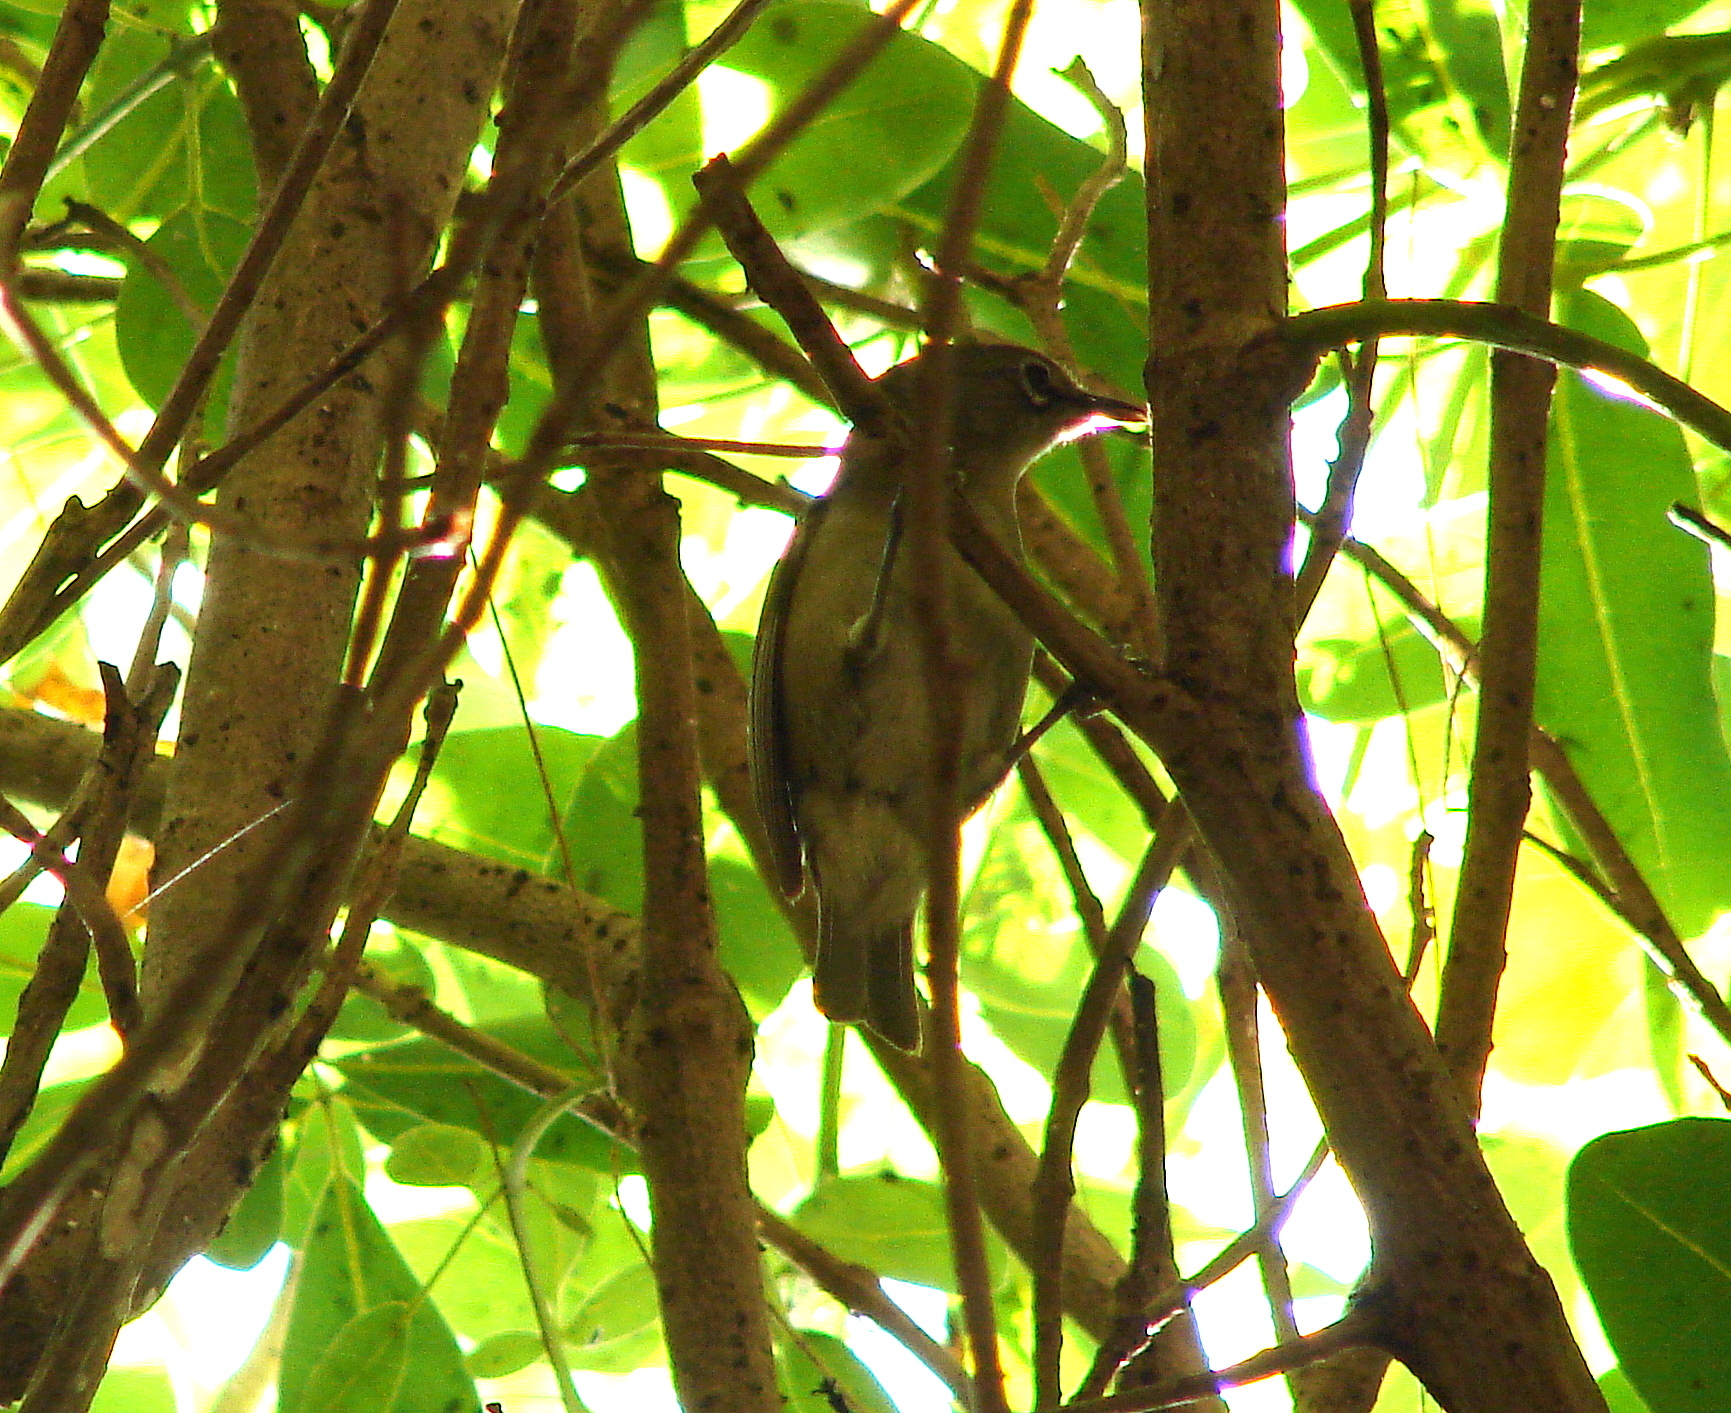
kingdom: Animalia
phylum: Chordata
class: Aves
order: Passeriformes
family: Zosteropidae
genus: Zosterops
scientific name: Zosterops modestus
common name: Seychelles white-eye
